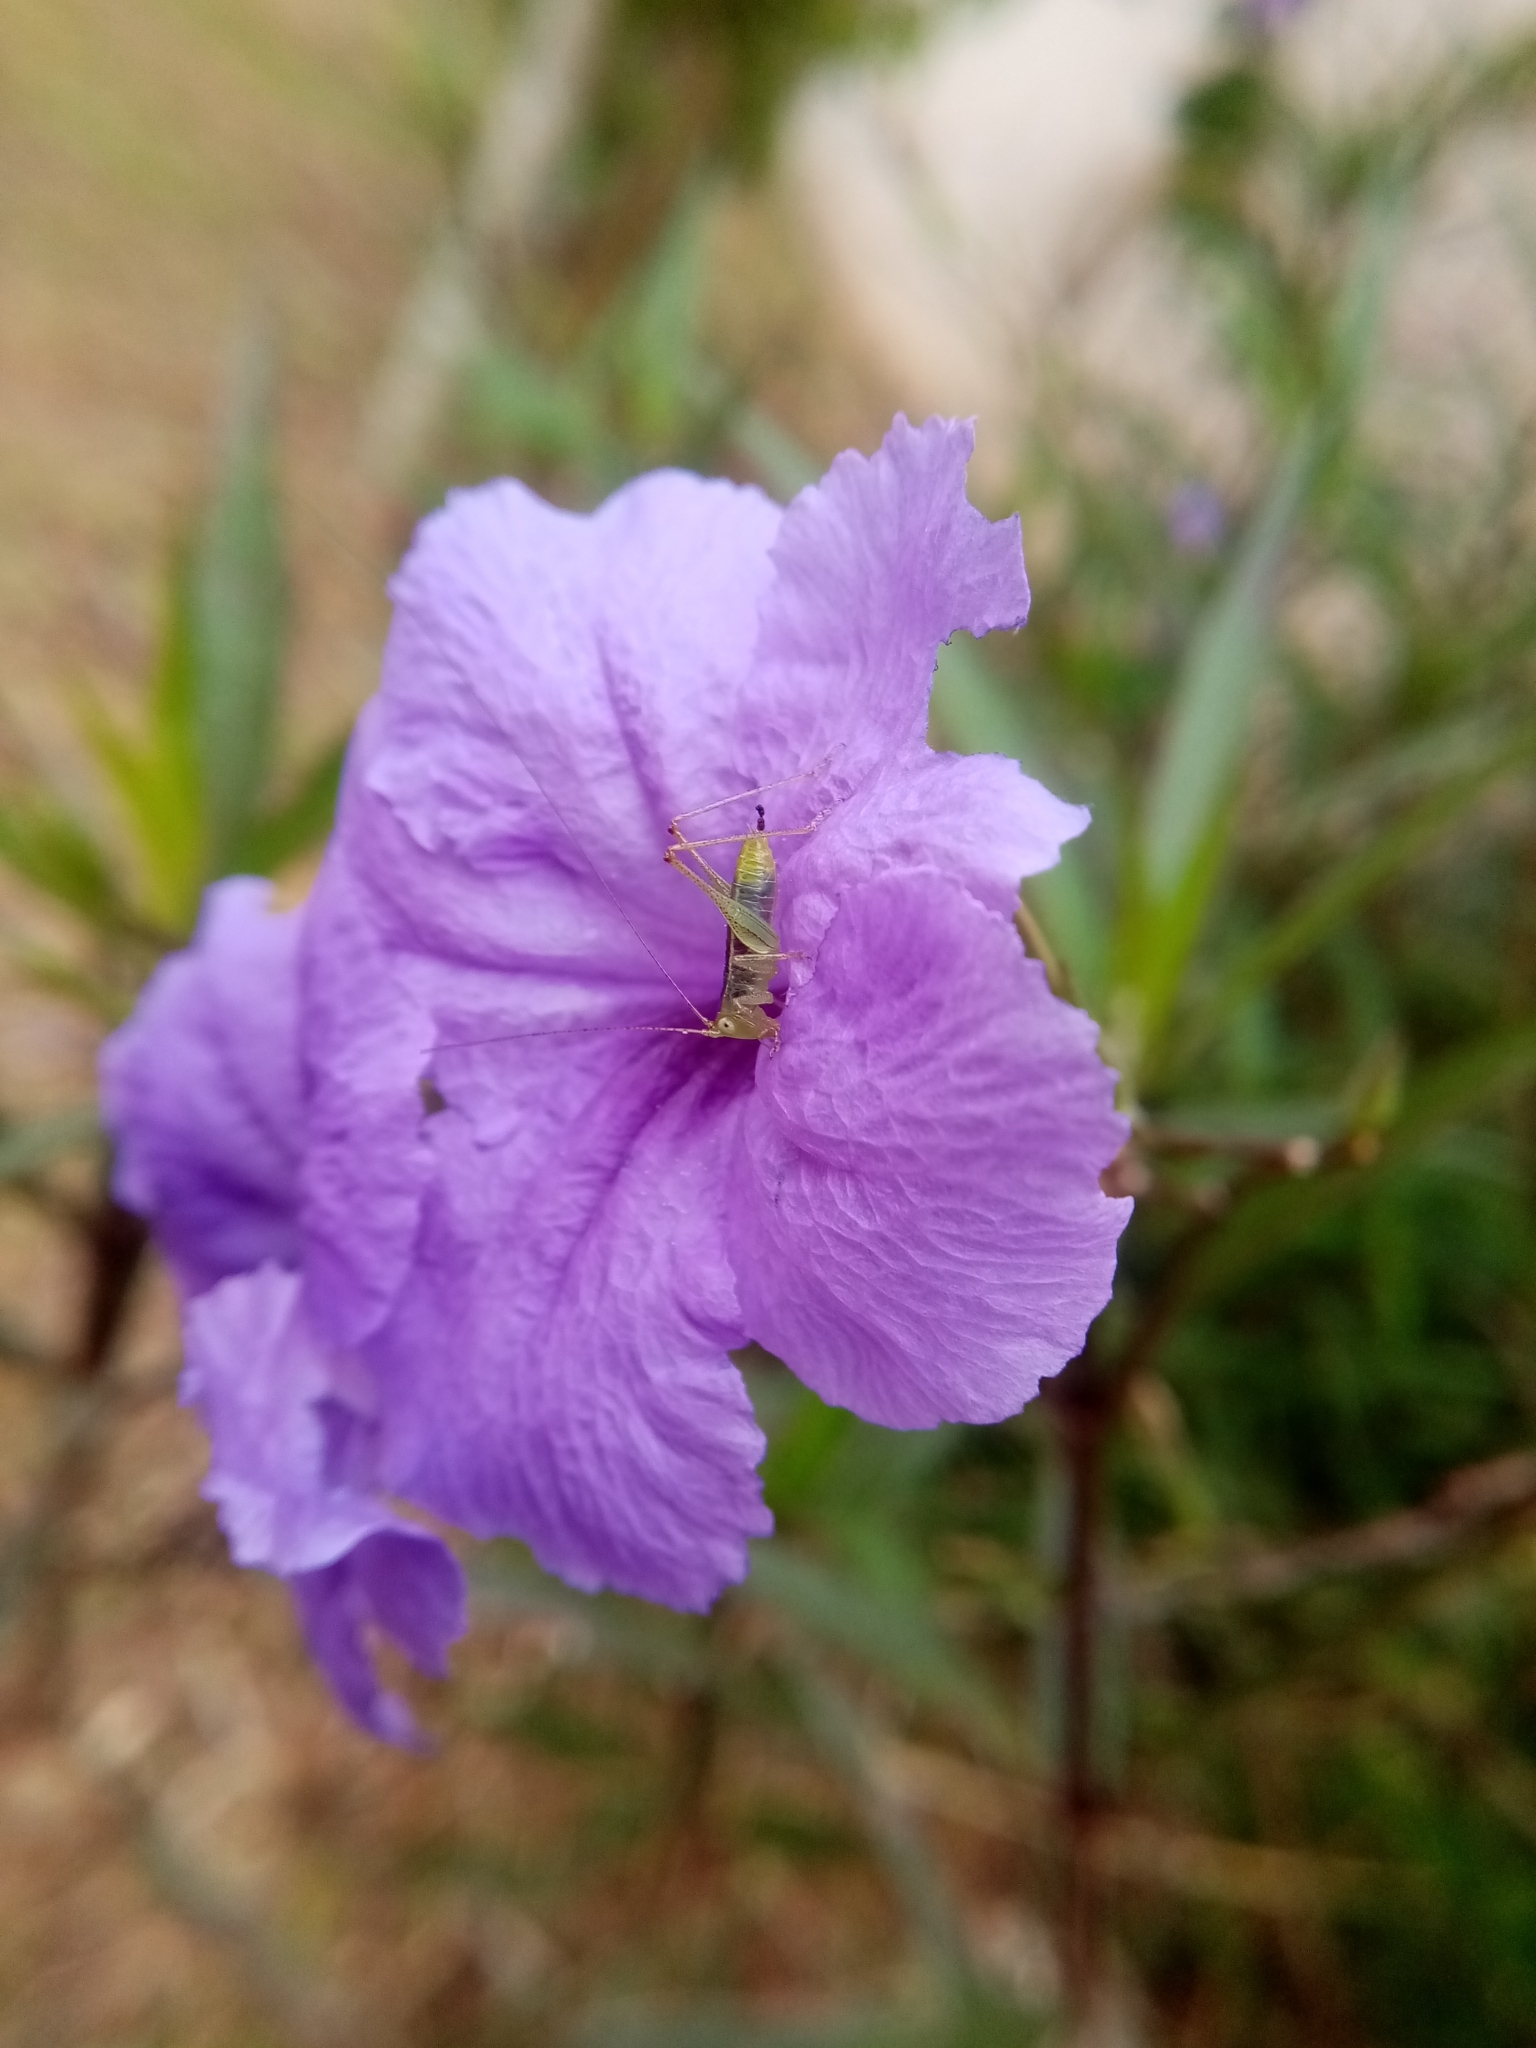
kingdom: Plantae
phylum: Tracheophyta
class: Magnoliopsida
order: Lamiales
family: Acanthaceae
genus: Ruellia
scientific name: Ruellia simplex
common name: Softseed wild petunia
